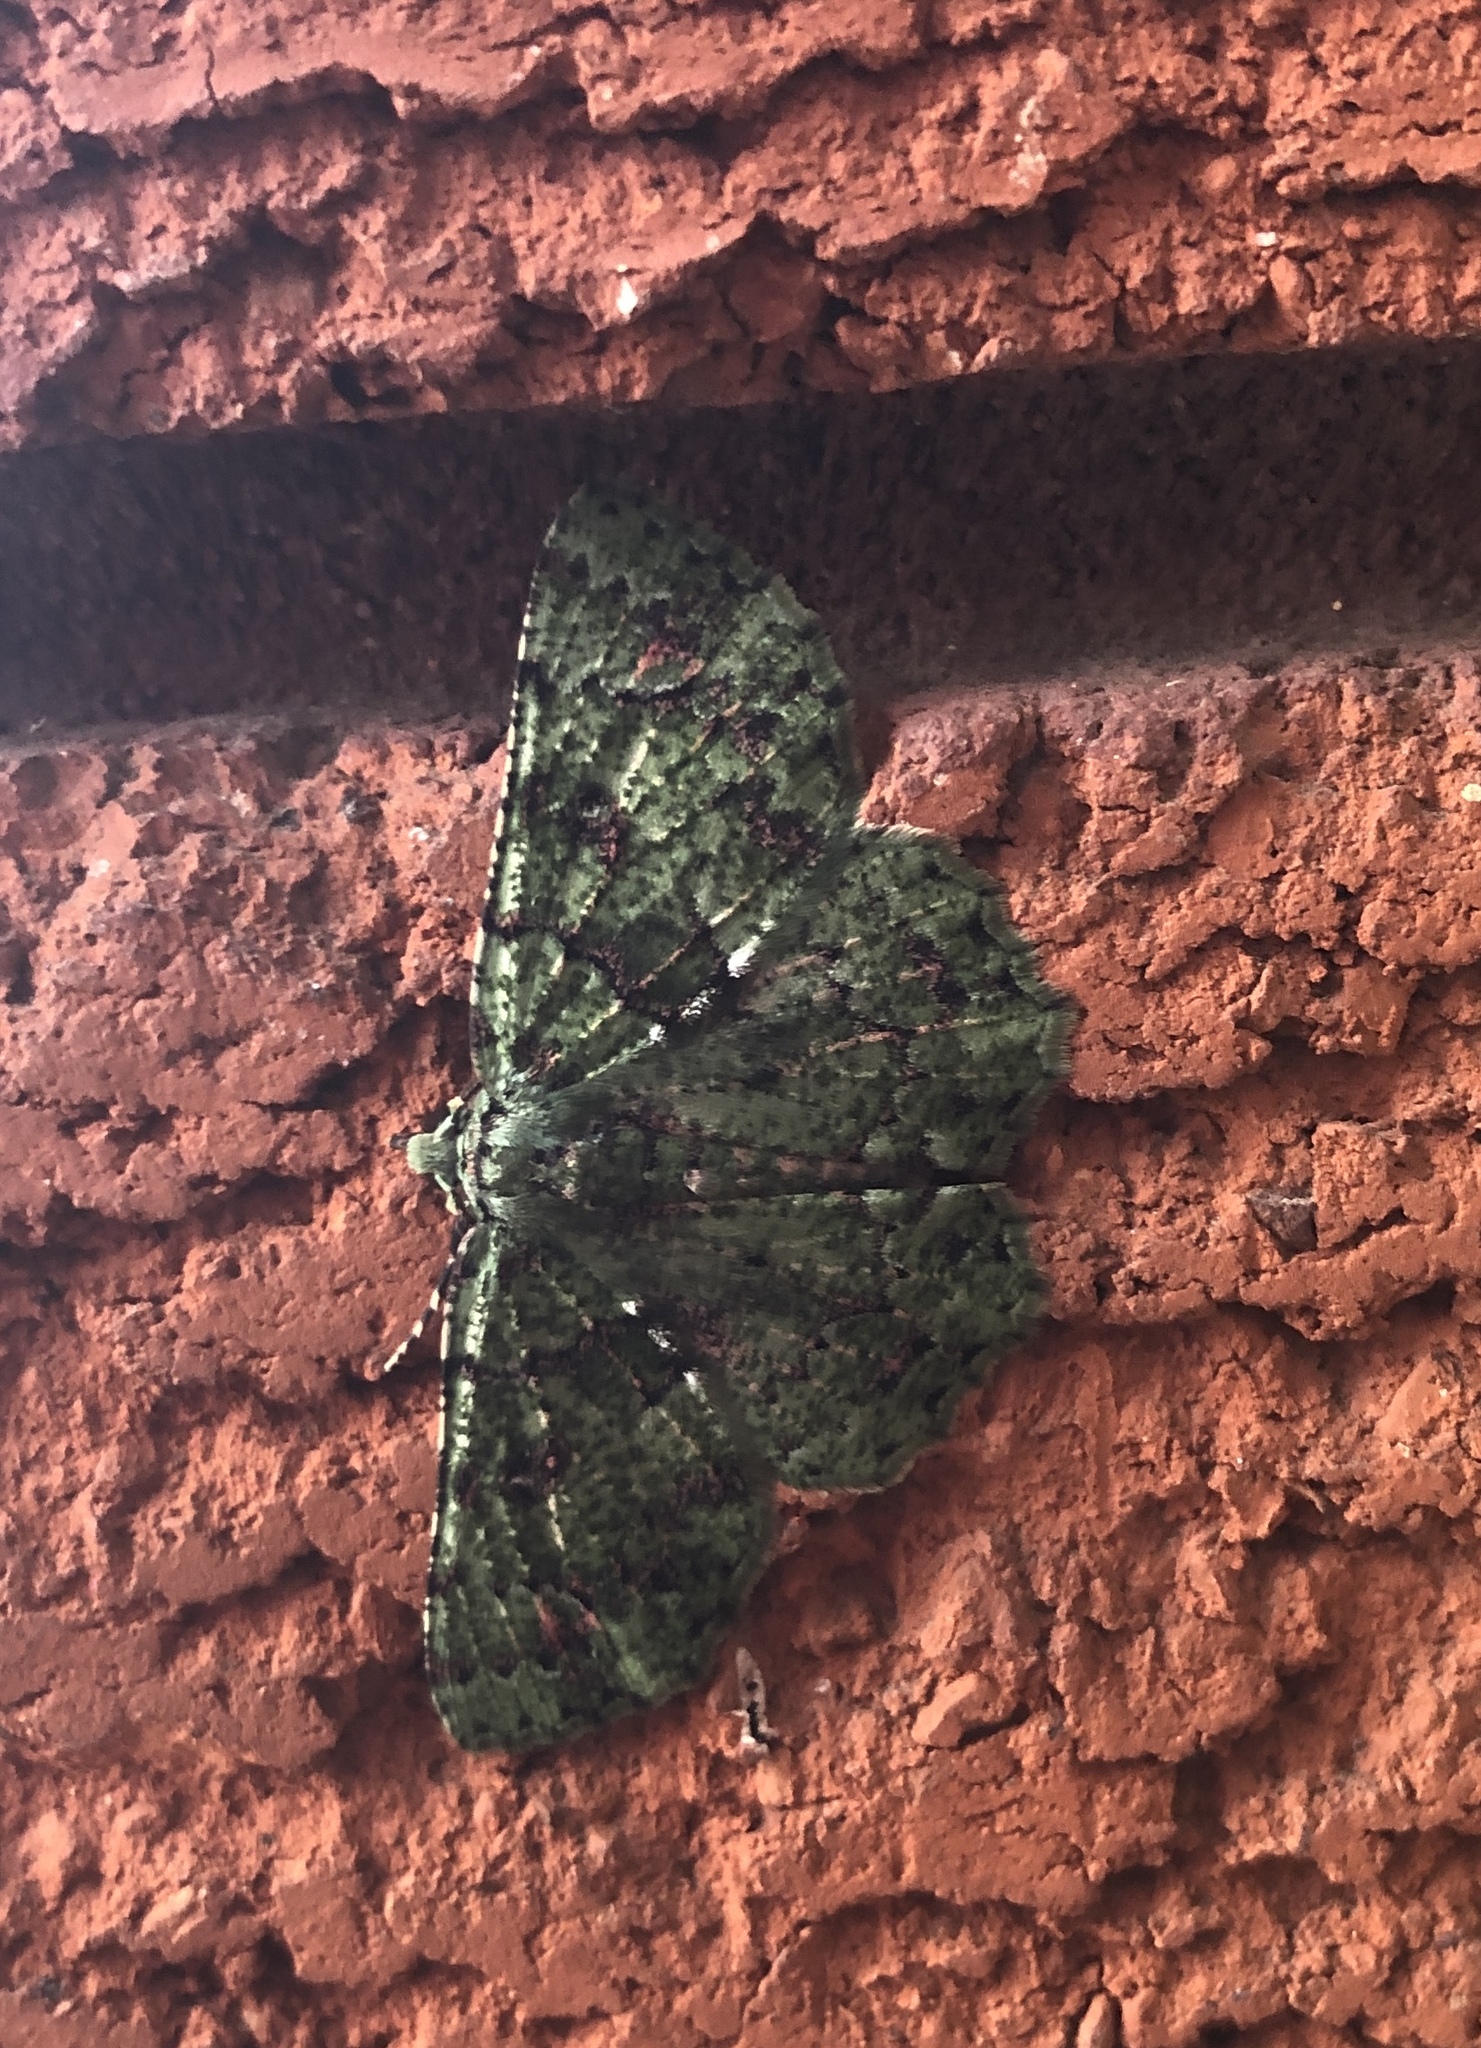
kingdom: Animalia
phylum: Arthropoda
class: Insecta
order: Lepidoptera
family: Geometridae
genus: Aeolochroma
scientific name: Aeolochroma hypochromaria
